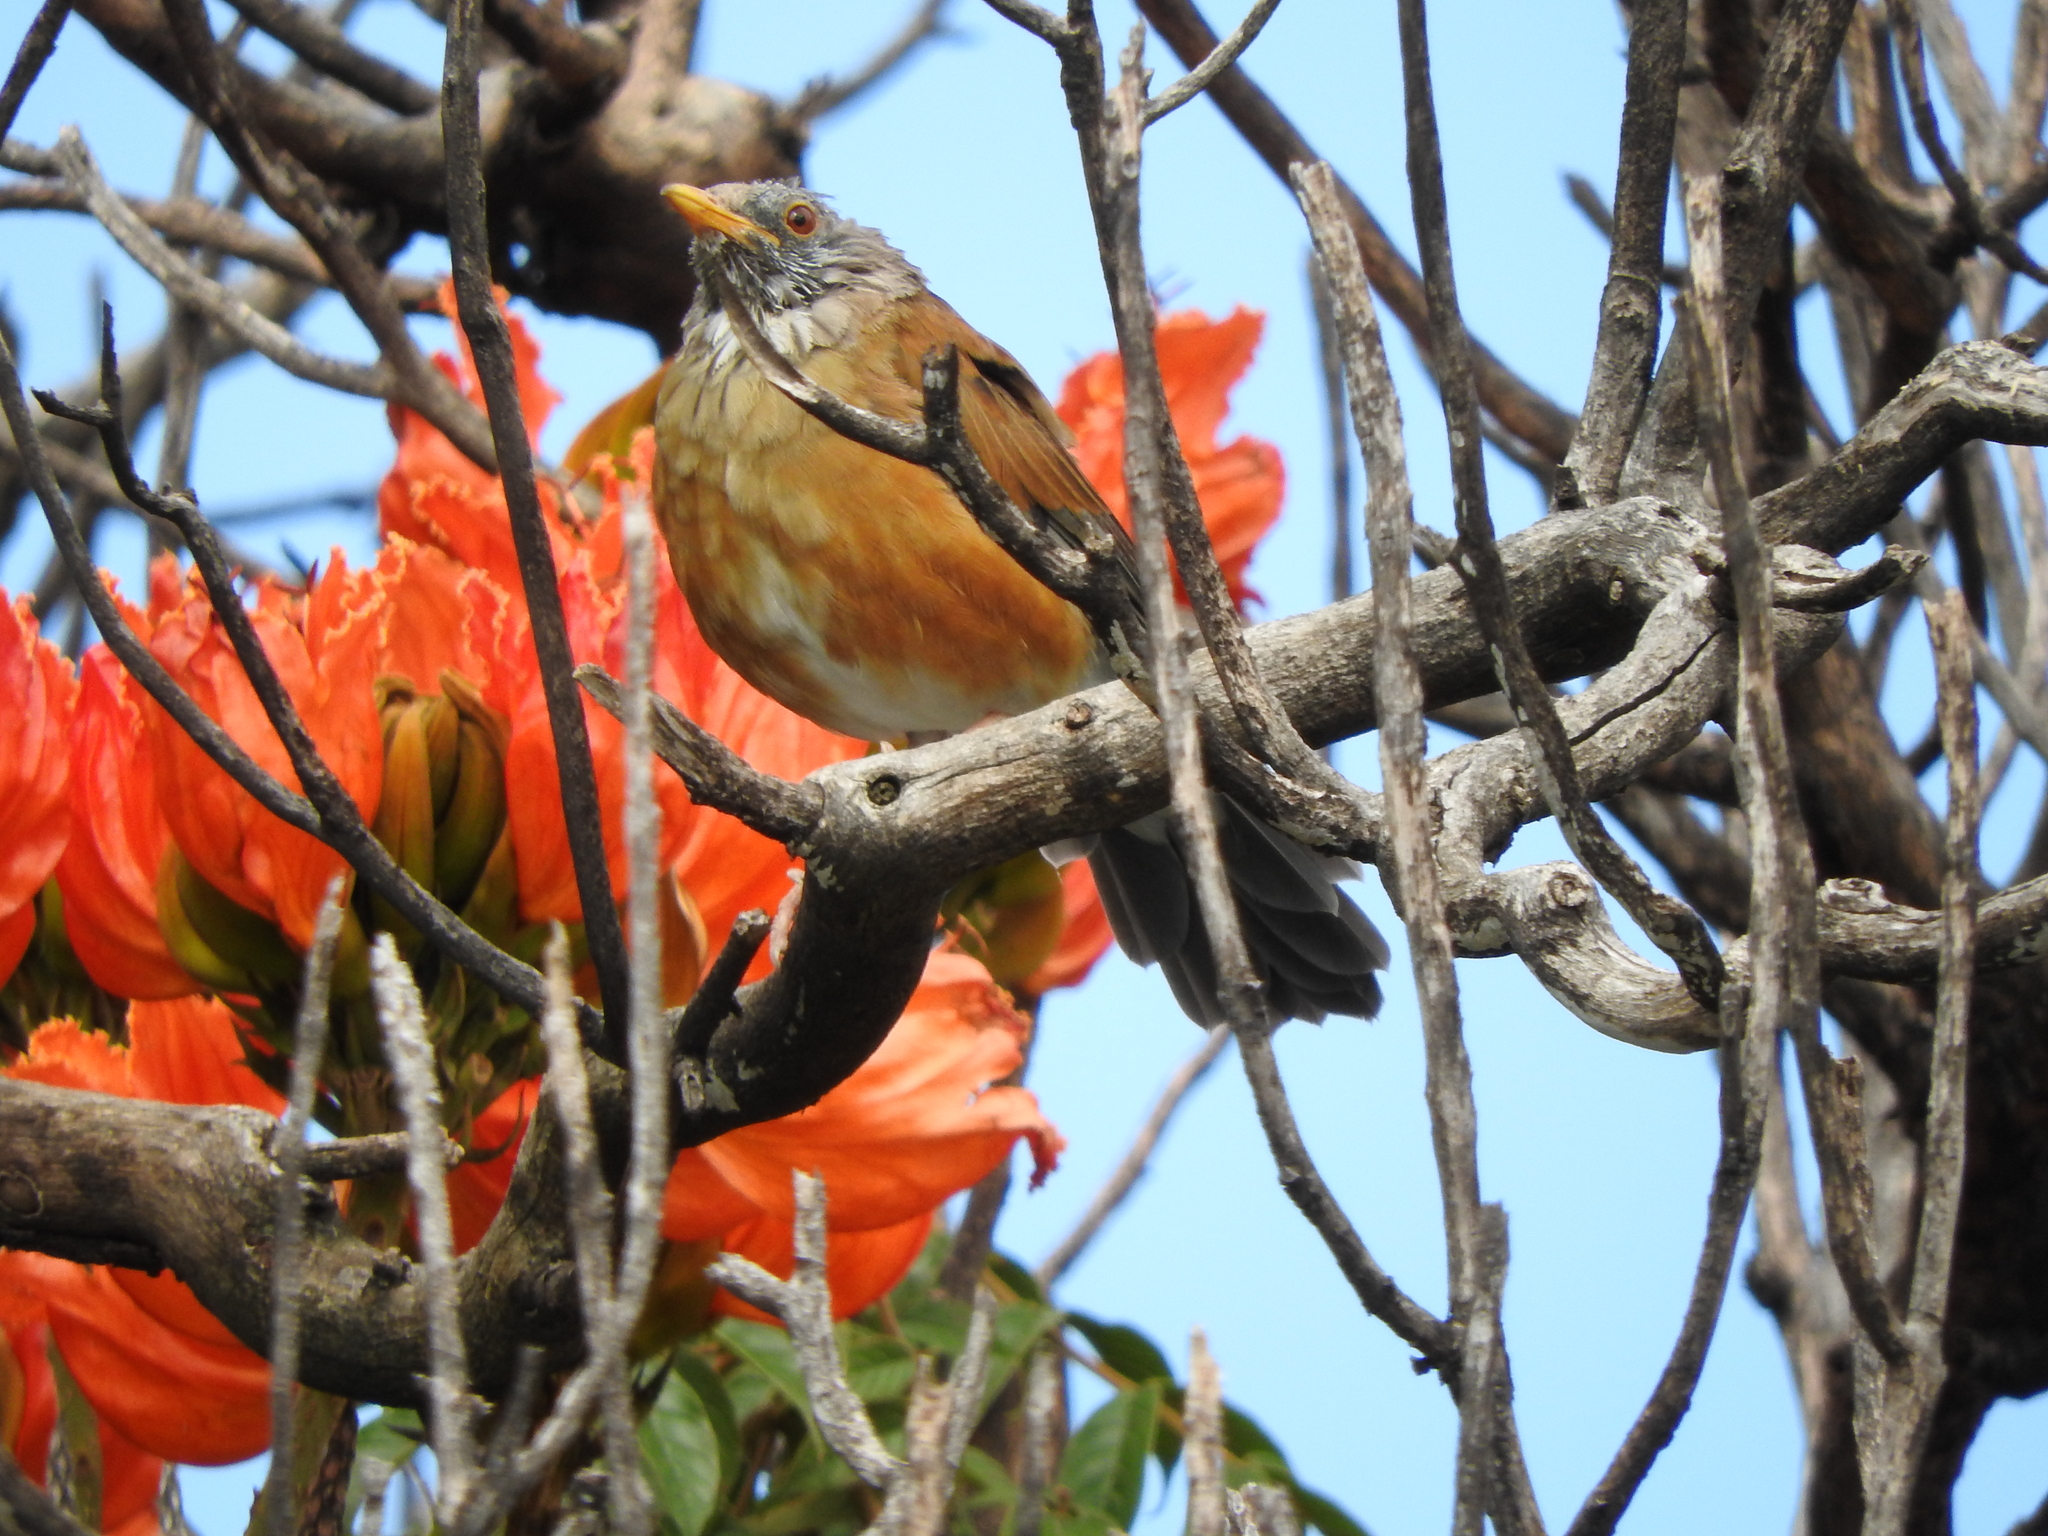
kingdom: Animalia
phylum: Chordata
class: Aves
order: Passeriformes
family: Turdidae
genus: Turdus
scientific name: Turdus rufopalliatus
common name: Rufous-backed robin
